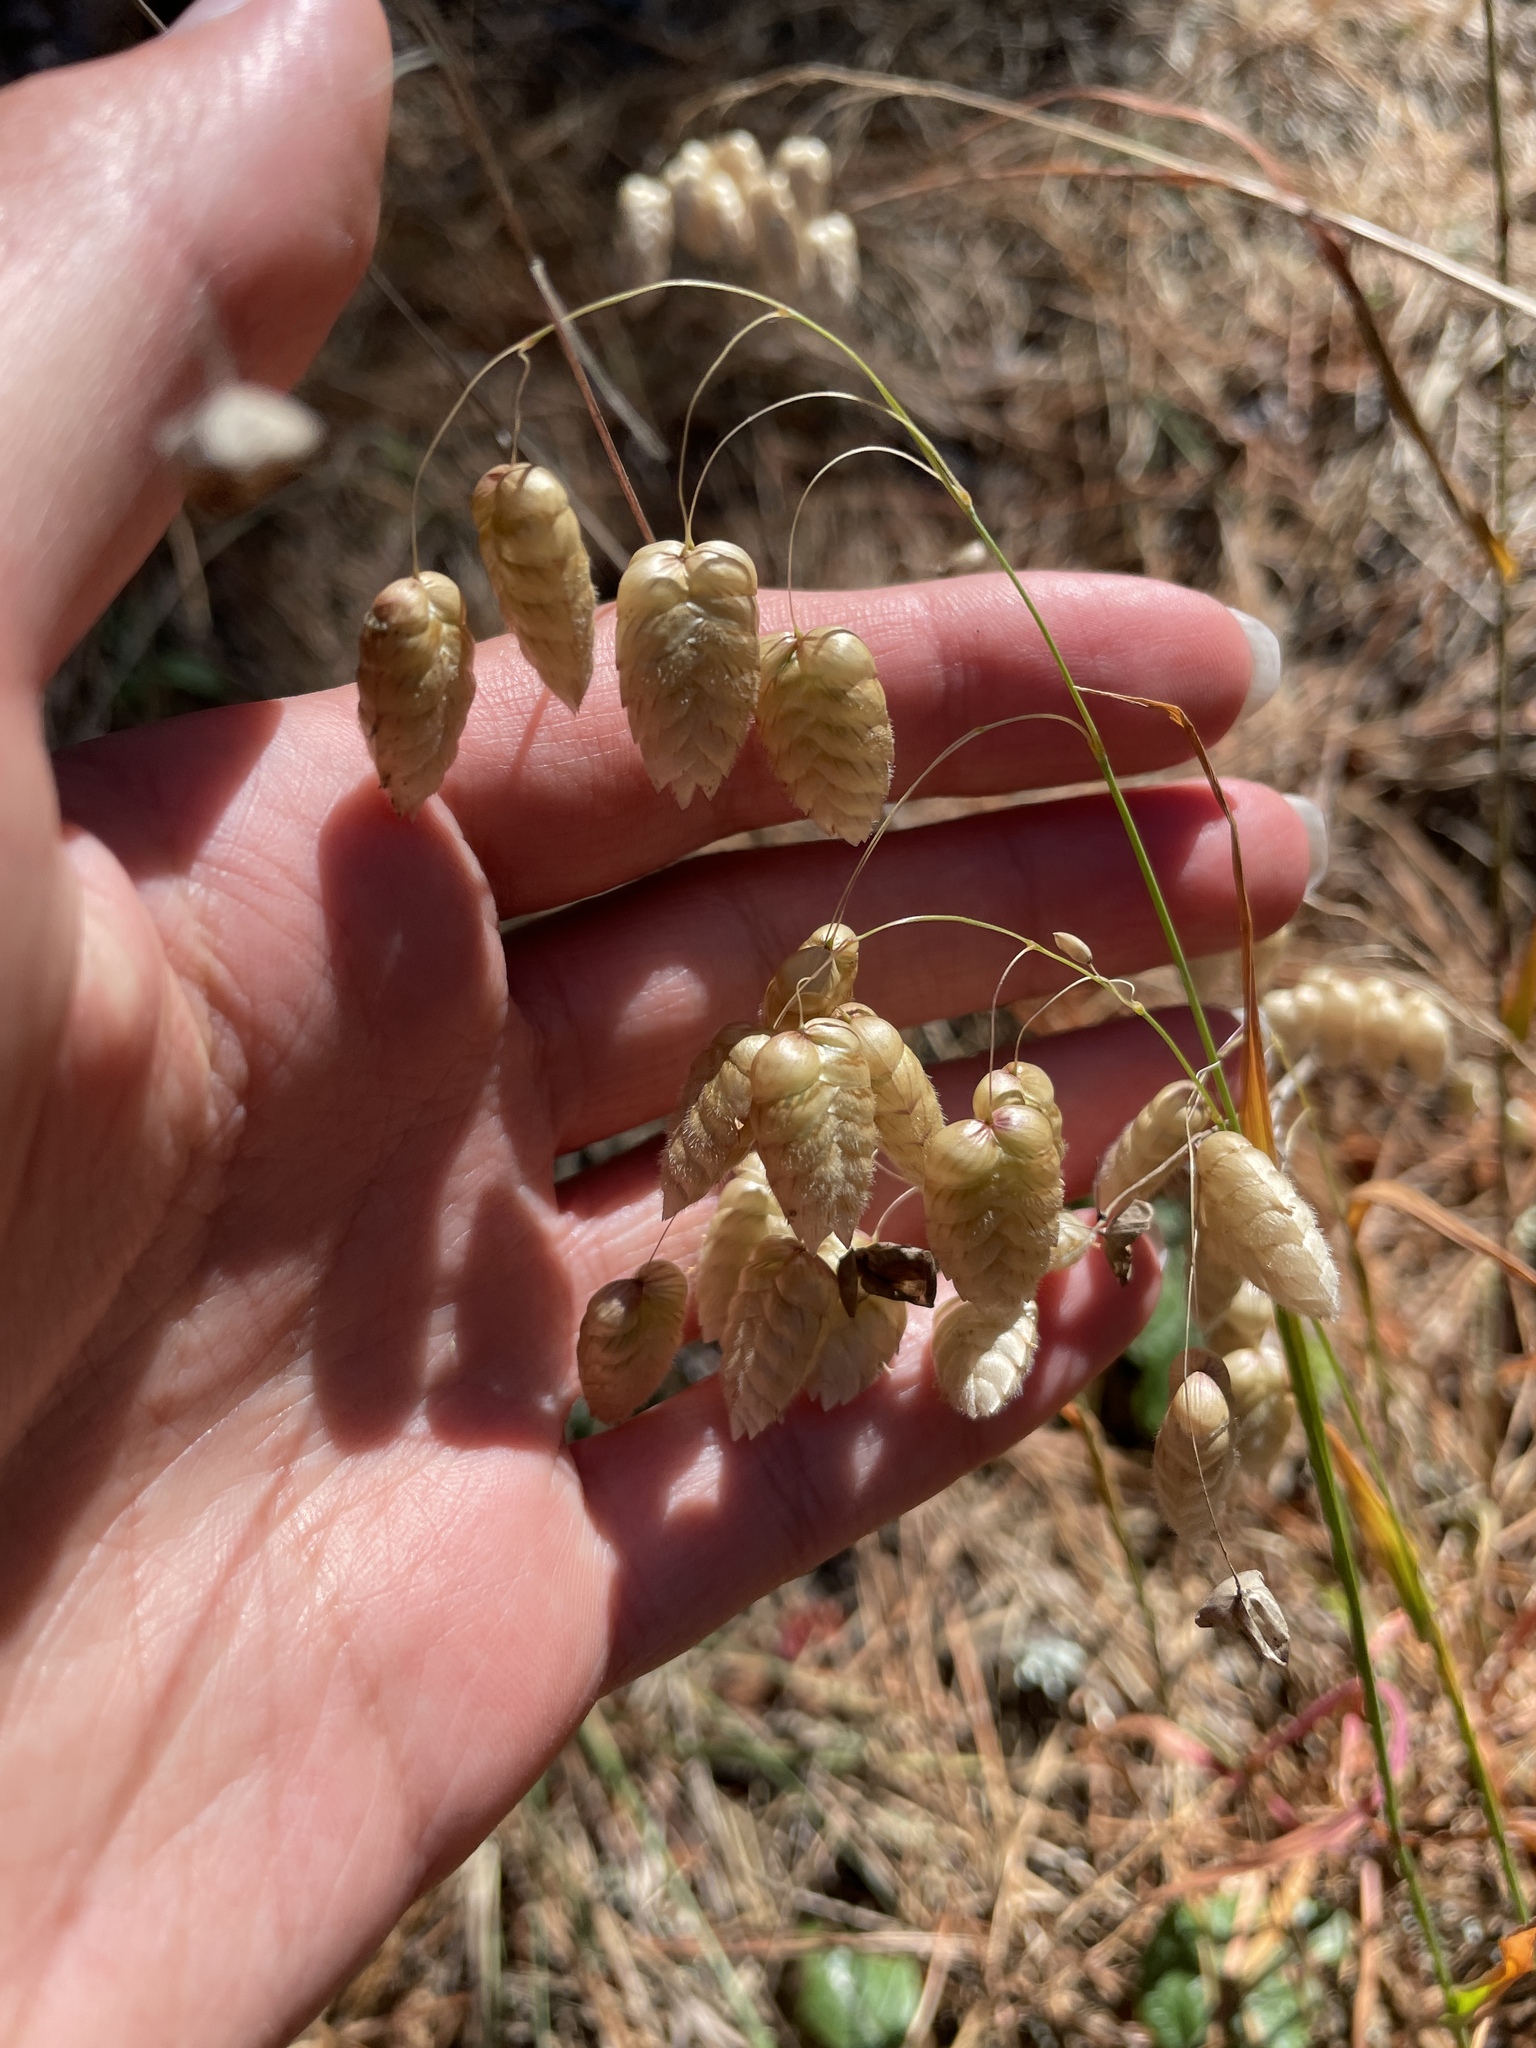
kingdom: Plantae
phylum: Tracheophyta
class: Liliopsida
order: Poales
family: Poaceae
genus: Briza
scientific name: Briza maxima
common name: Big quakinggrass
